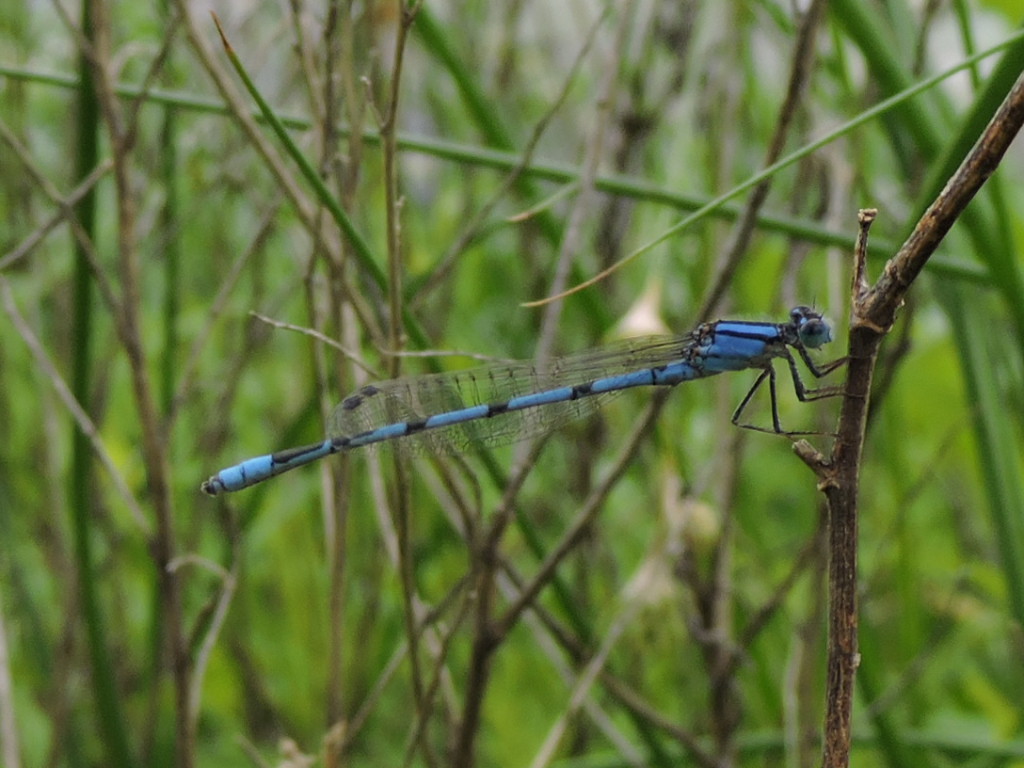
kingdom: Animalia
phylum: Arthropoda
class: Insecta
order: Odonata
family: Coenagrionidae
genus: Enallagma
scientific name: Enallagma civile
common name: Damselfly
